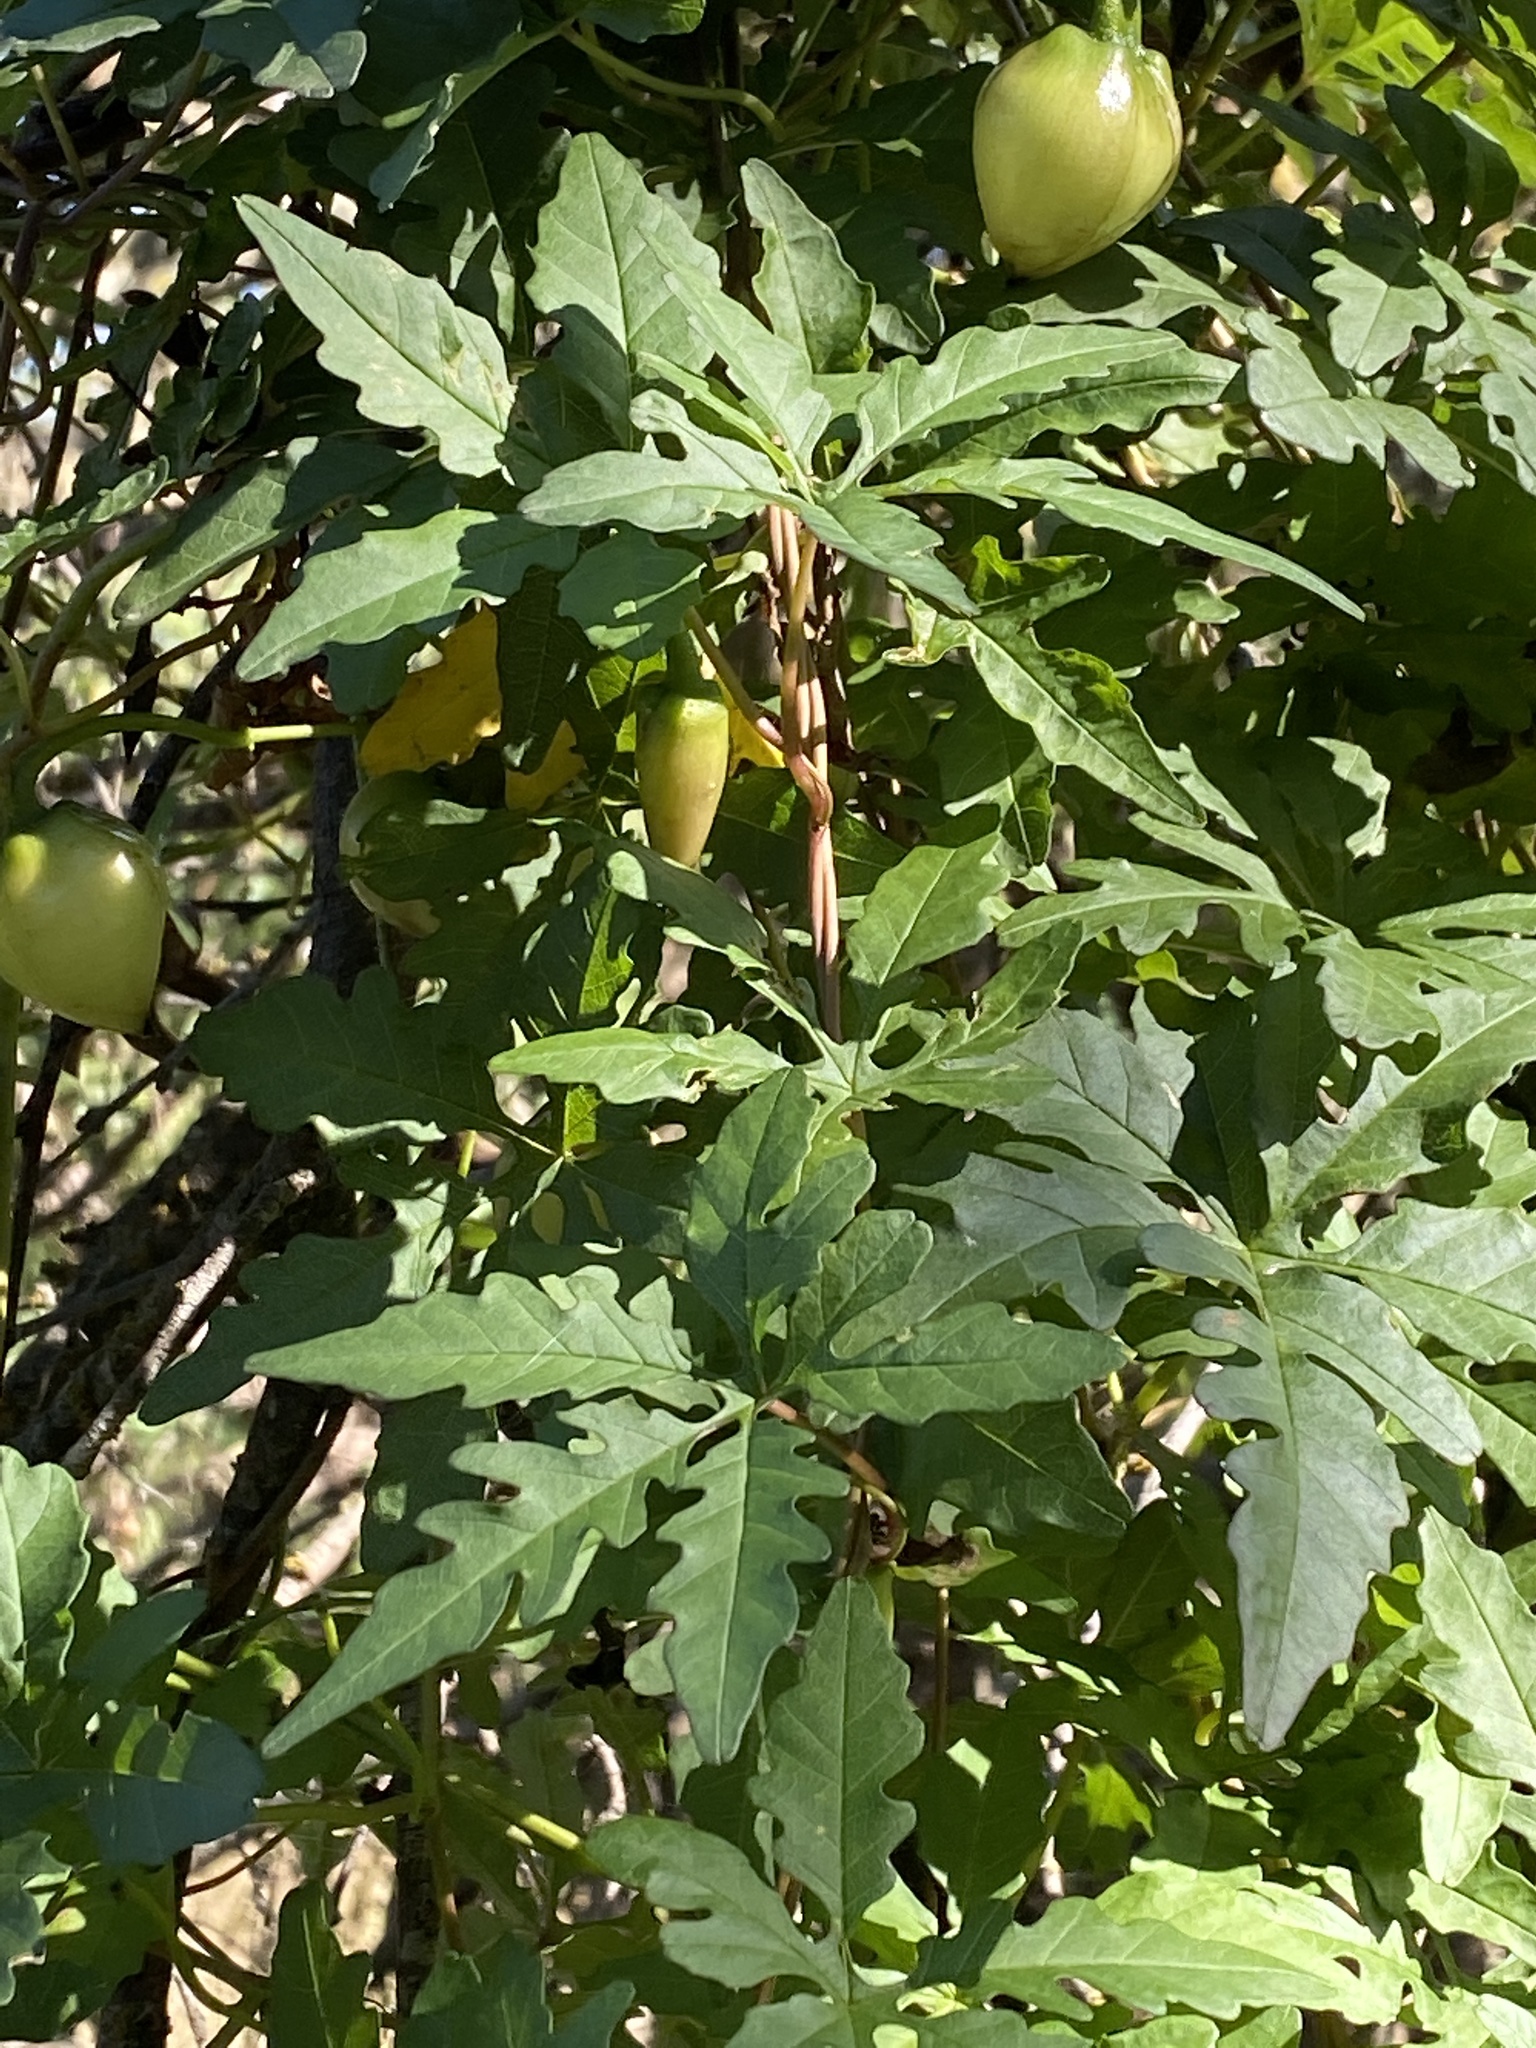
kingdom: Plantae
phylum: Tracheophyta
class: Magnoliopsida
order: Solanales
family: Convolvulaceae
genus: Distimake
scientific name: Distimake dissectus
